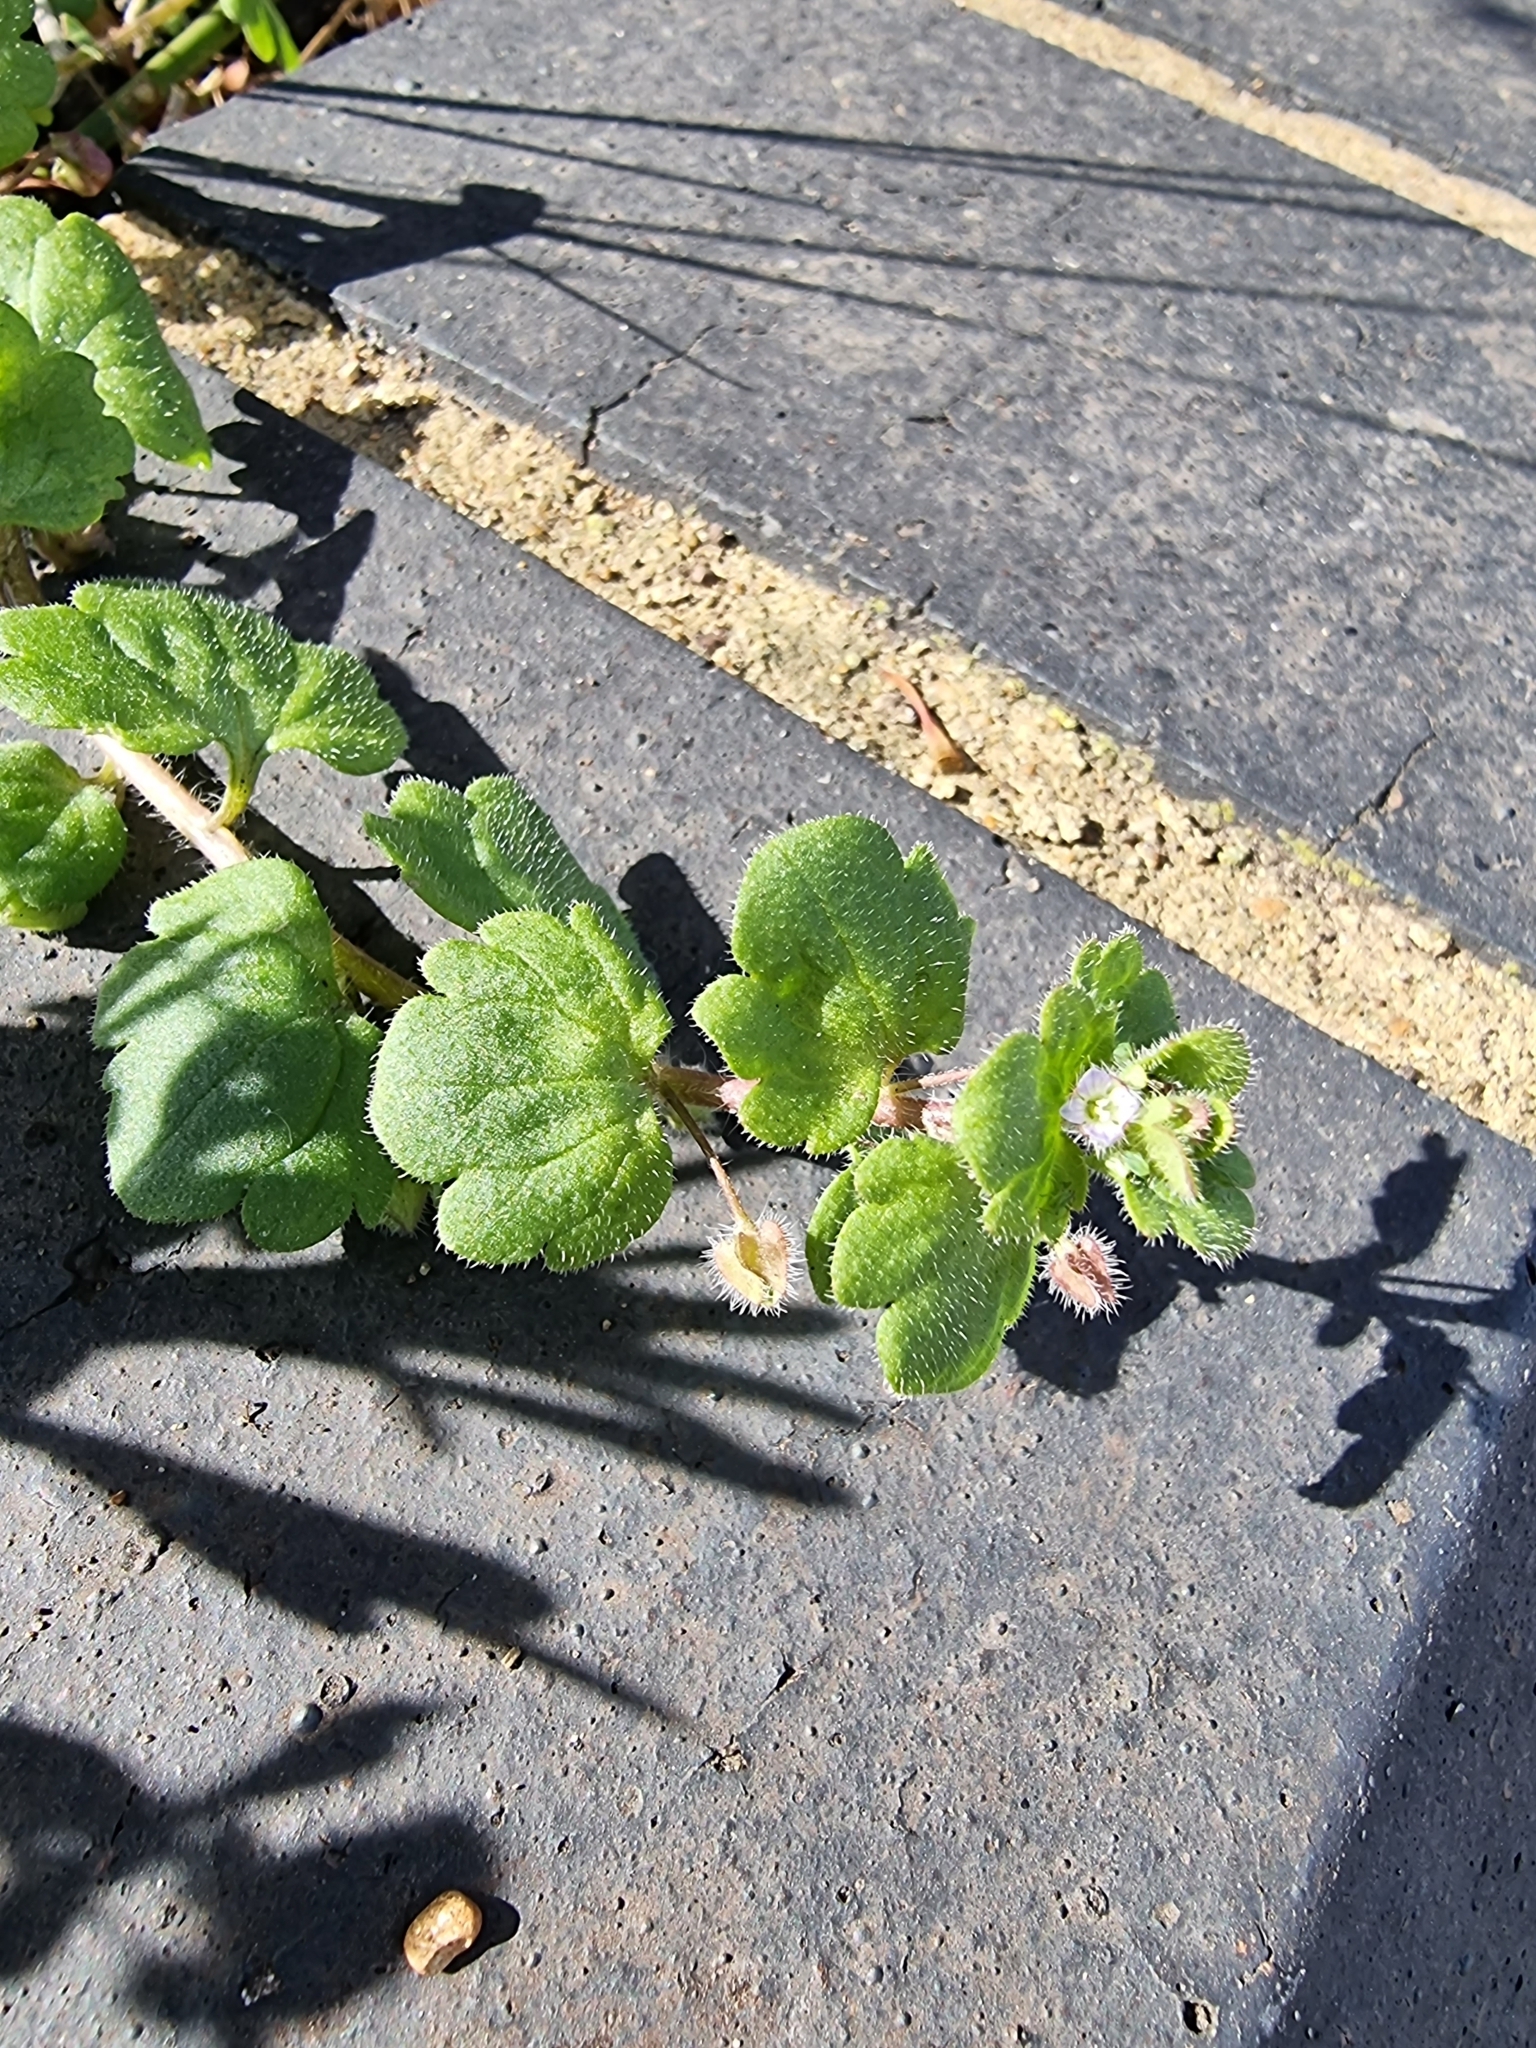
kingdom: Plantae
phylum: Tracheophyta
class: Magnoliopsida
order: Lamiales
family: Plantaginaceae
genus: Veronica
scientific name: Veronica sublobata
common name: False ivy-leaved speedwell
